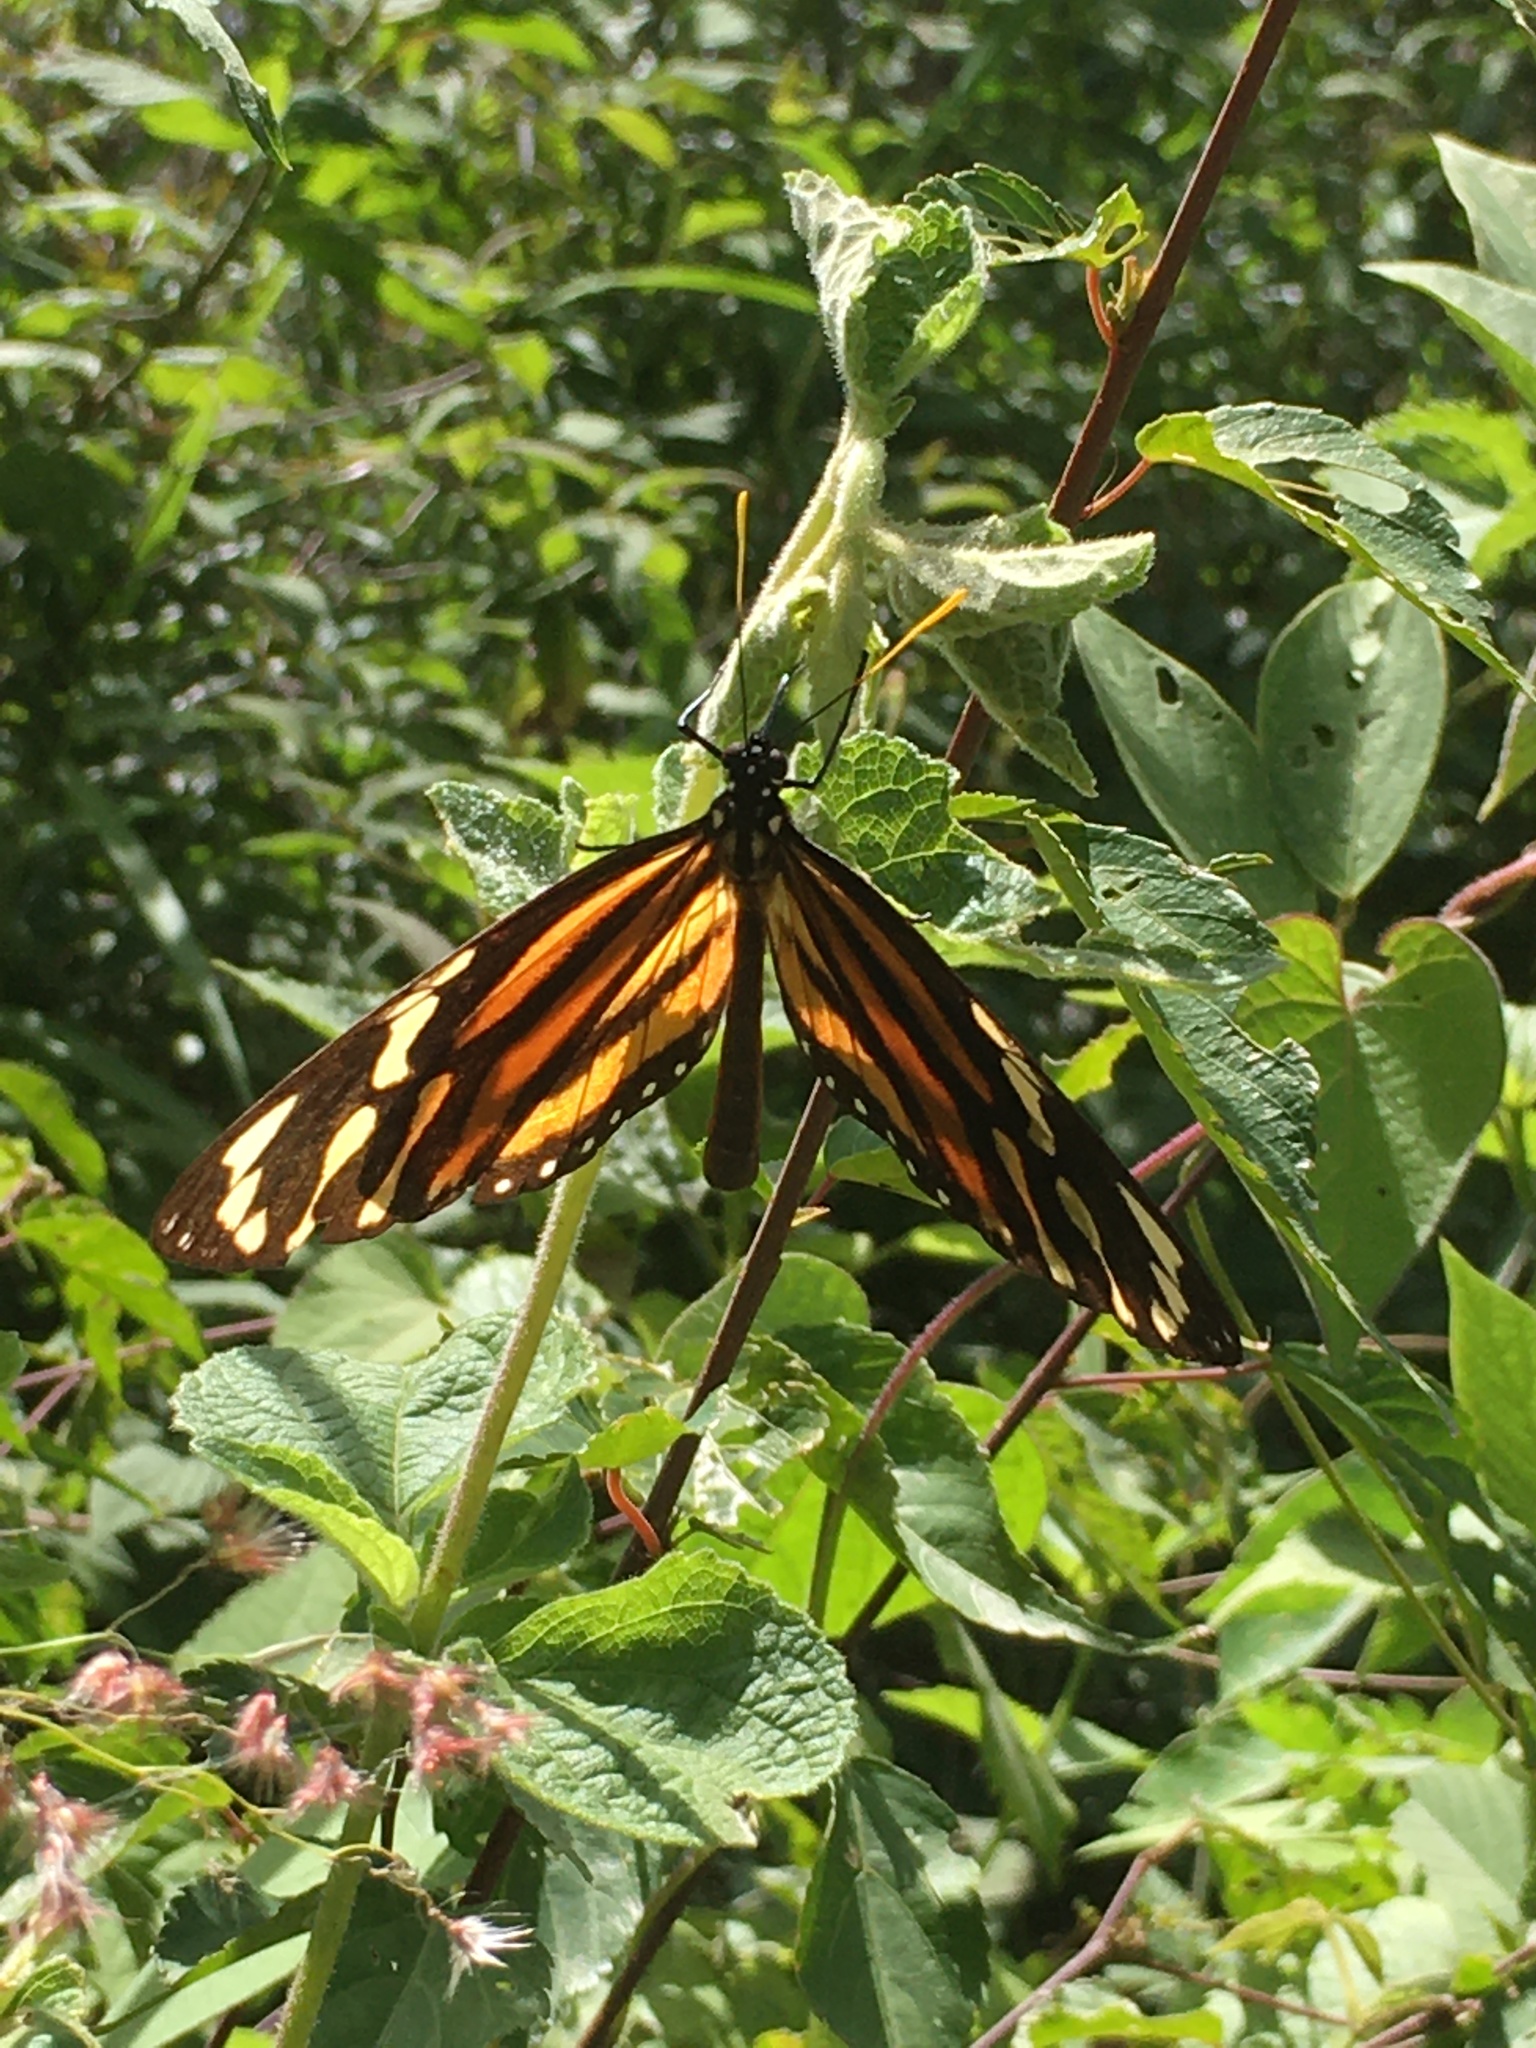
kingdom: Animalia
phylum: Arthropoda
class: Insecta
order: Lepidoptera
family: Nymphalidae
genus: Lycorea
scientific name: Lycorea cleobaea
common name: Tiger mimic-queen
